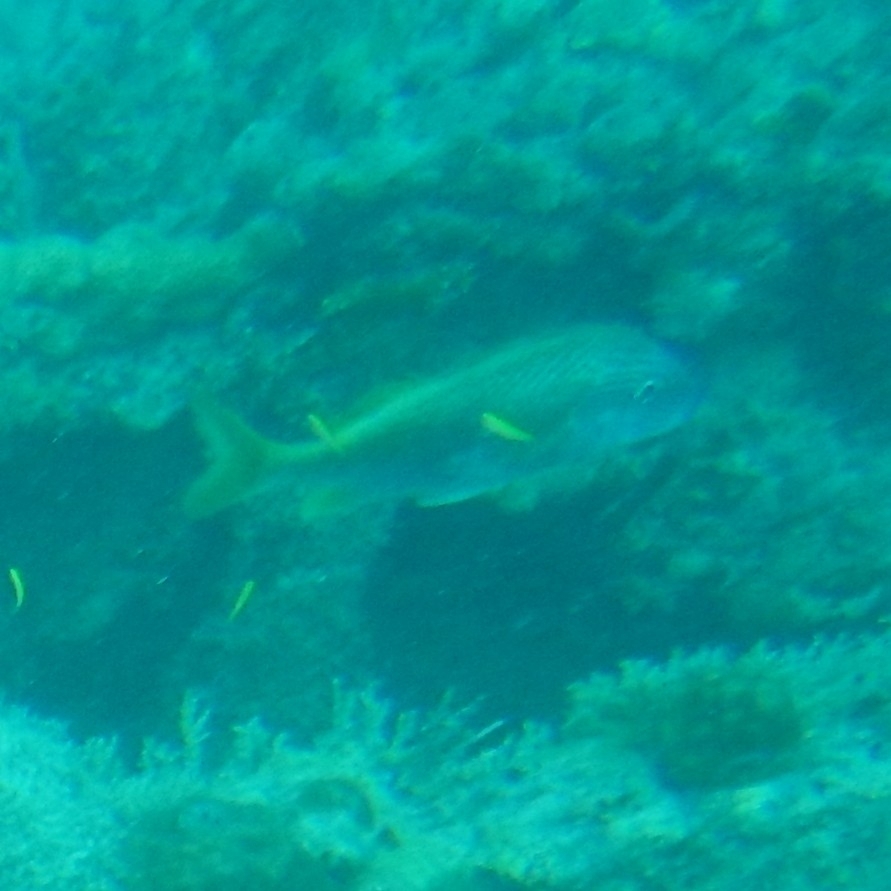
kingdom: Animalia
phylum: Chordata
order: Perciformes
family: Haemulidae
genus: Haemulon
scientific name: Haemulon plumierii
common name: White grunt
